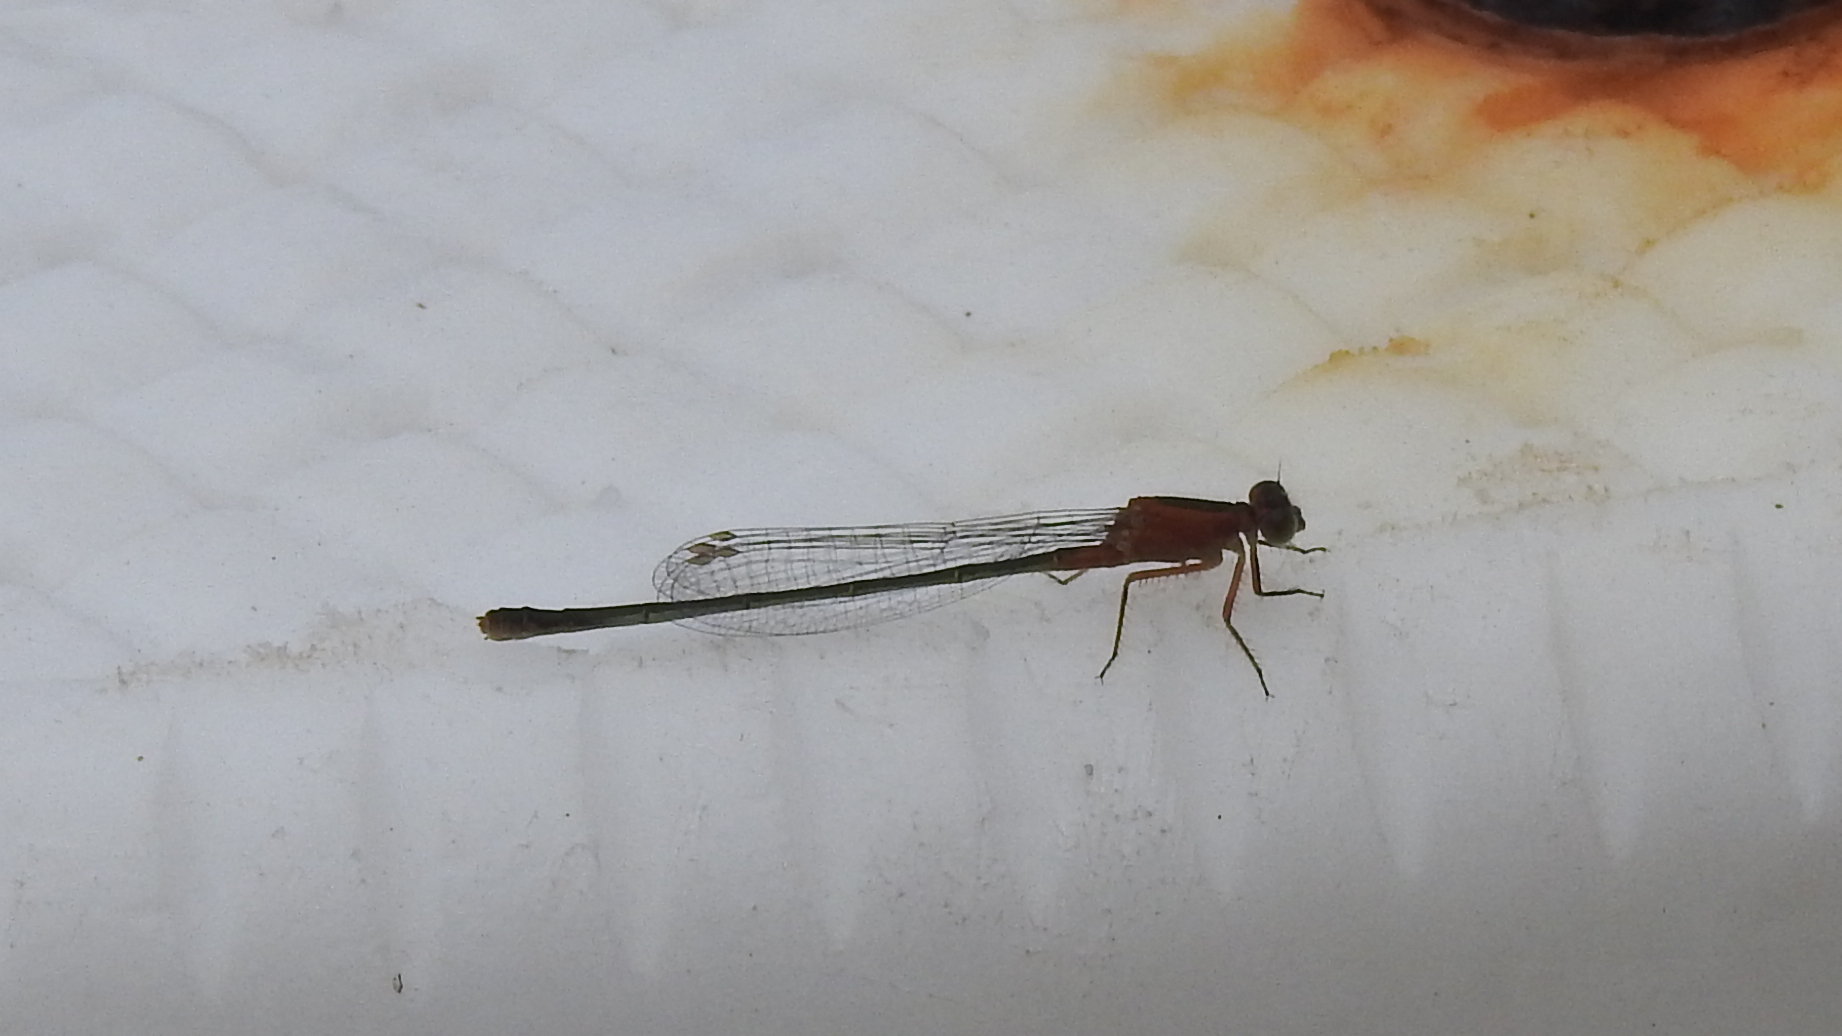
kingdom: Animalia
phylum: Arthropoda
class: Insecta
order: Odonata
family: Coenagrionidae
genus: Ischnura
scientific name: Ischnura ramburii
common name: Rambur's forktail
